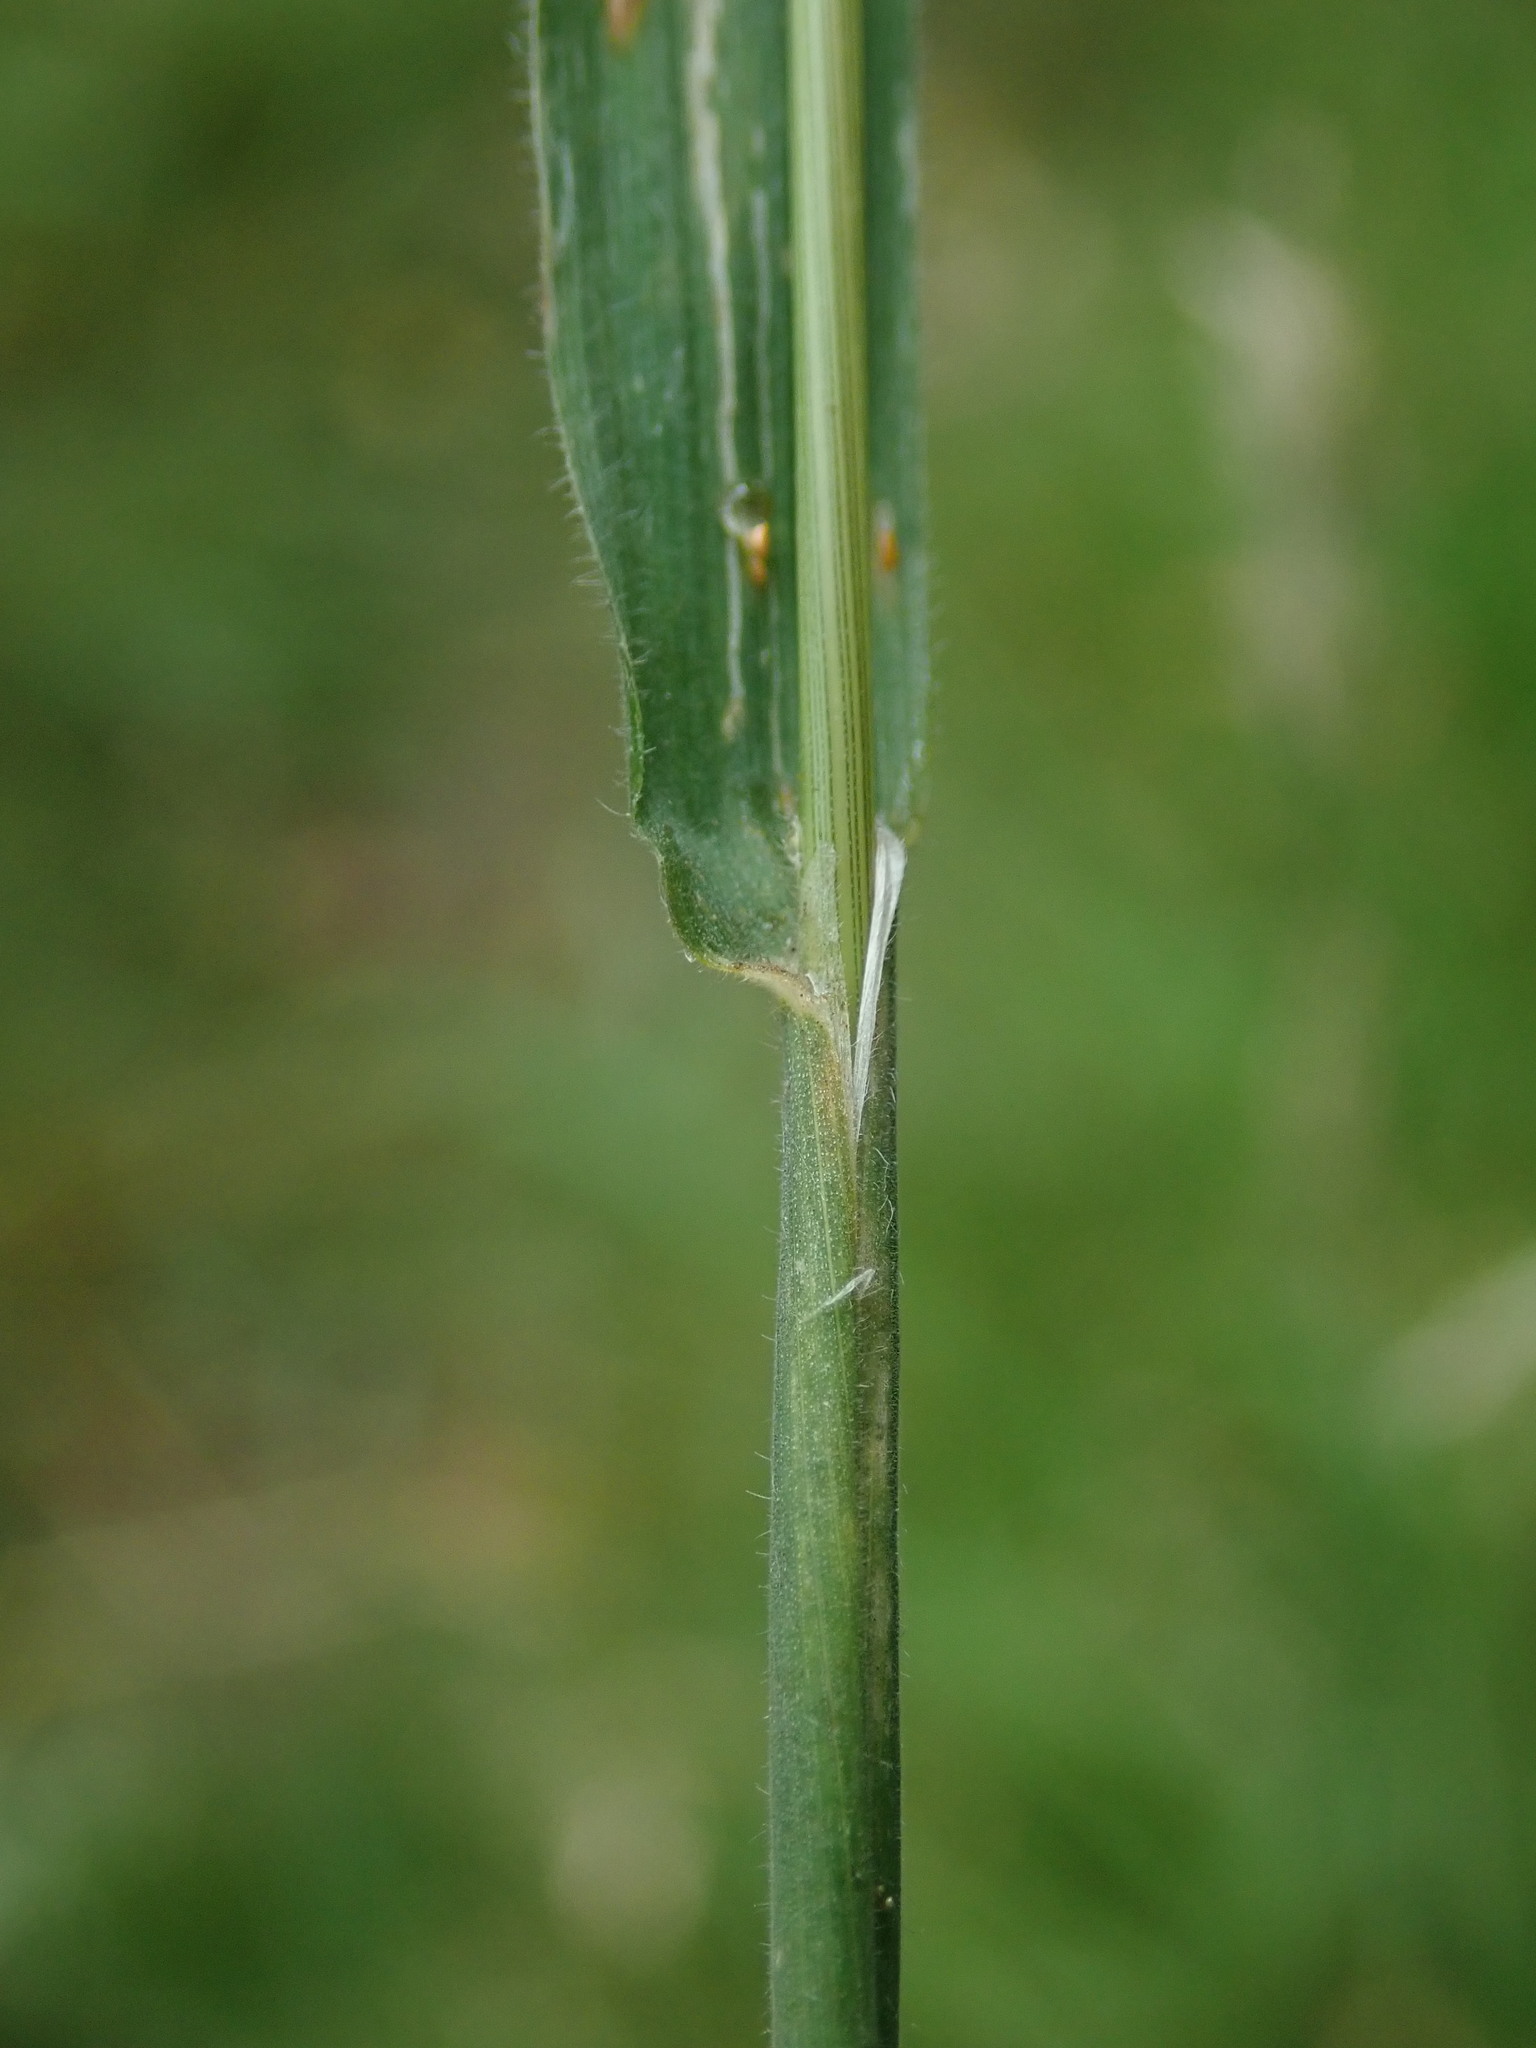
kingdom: Plantae
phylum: Tracheophyta
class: Liliopsida
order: Poales
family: Poaceae
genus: Holcus
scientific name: Holcus lanatus
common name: Yorkshire-fog
